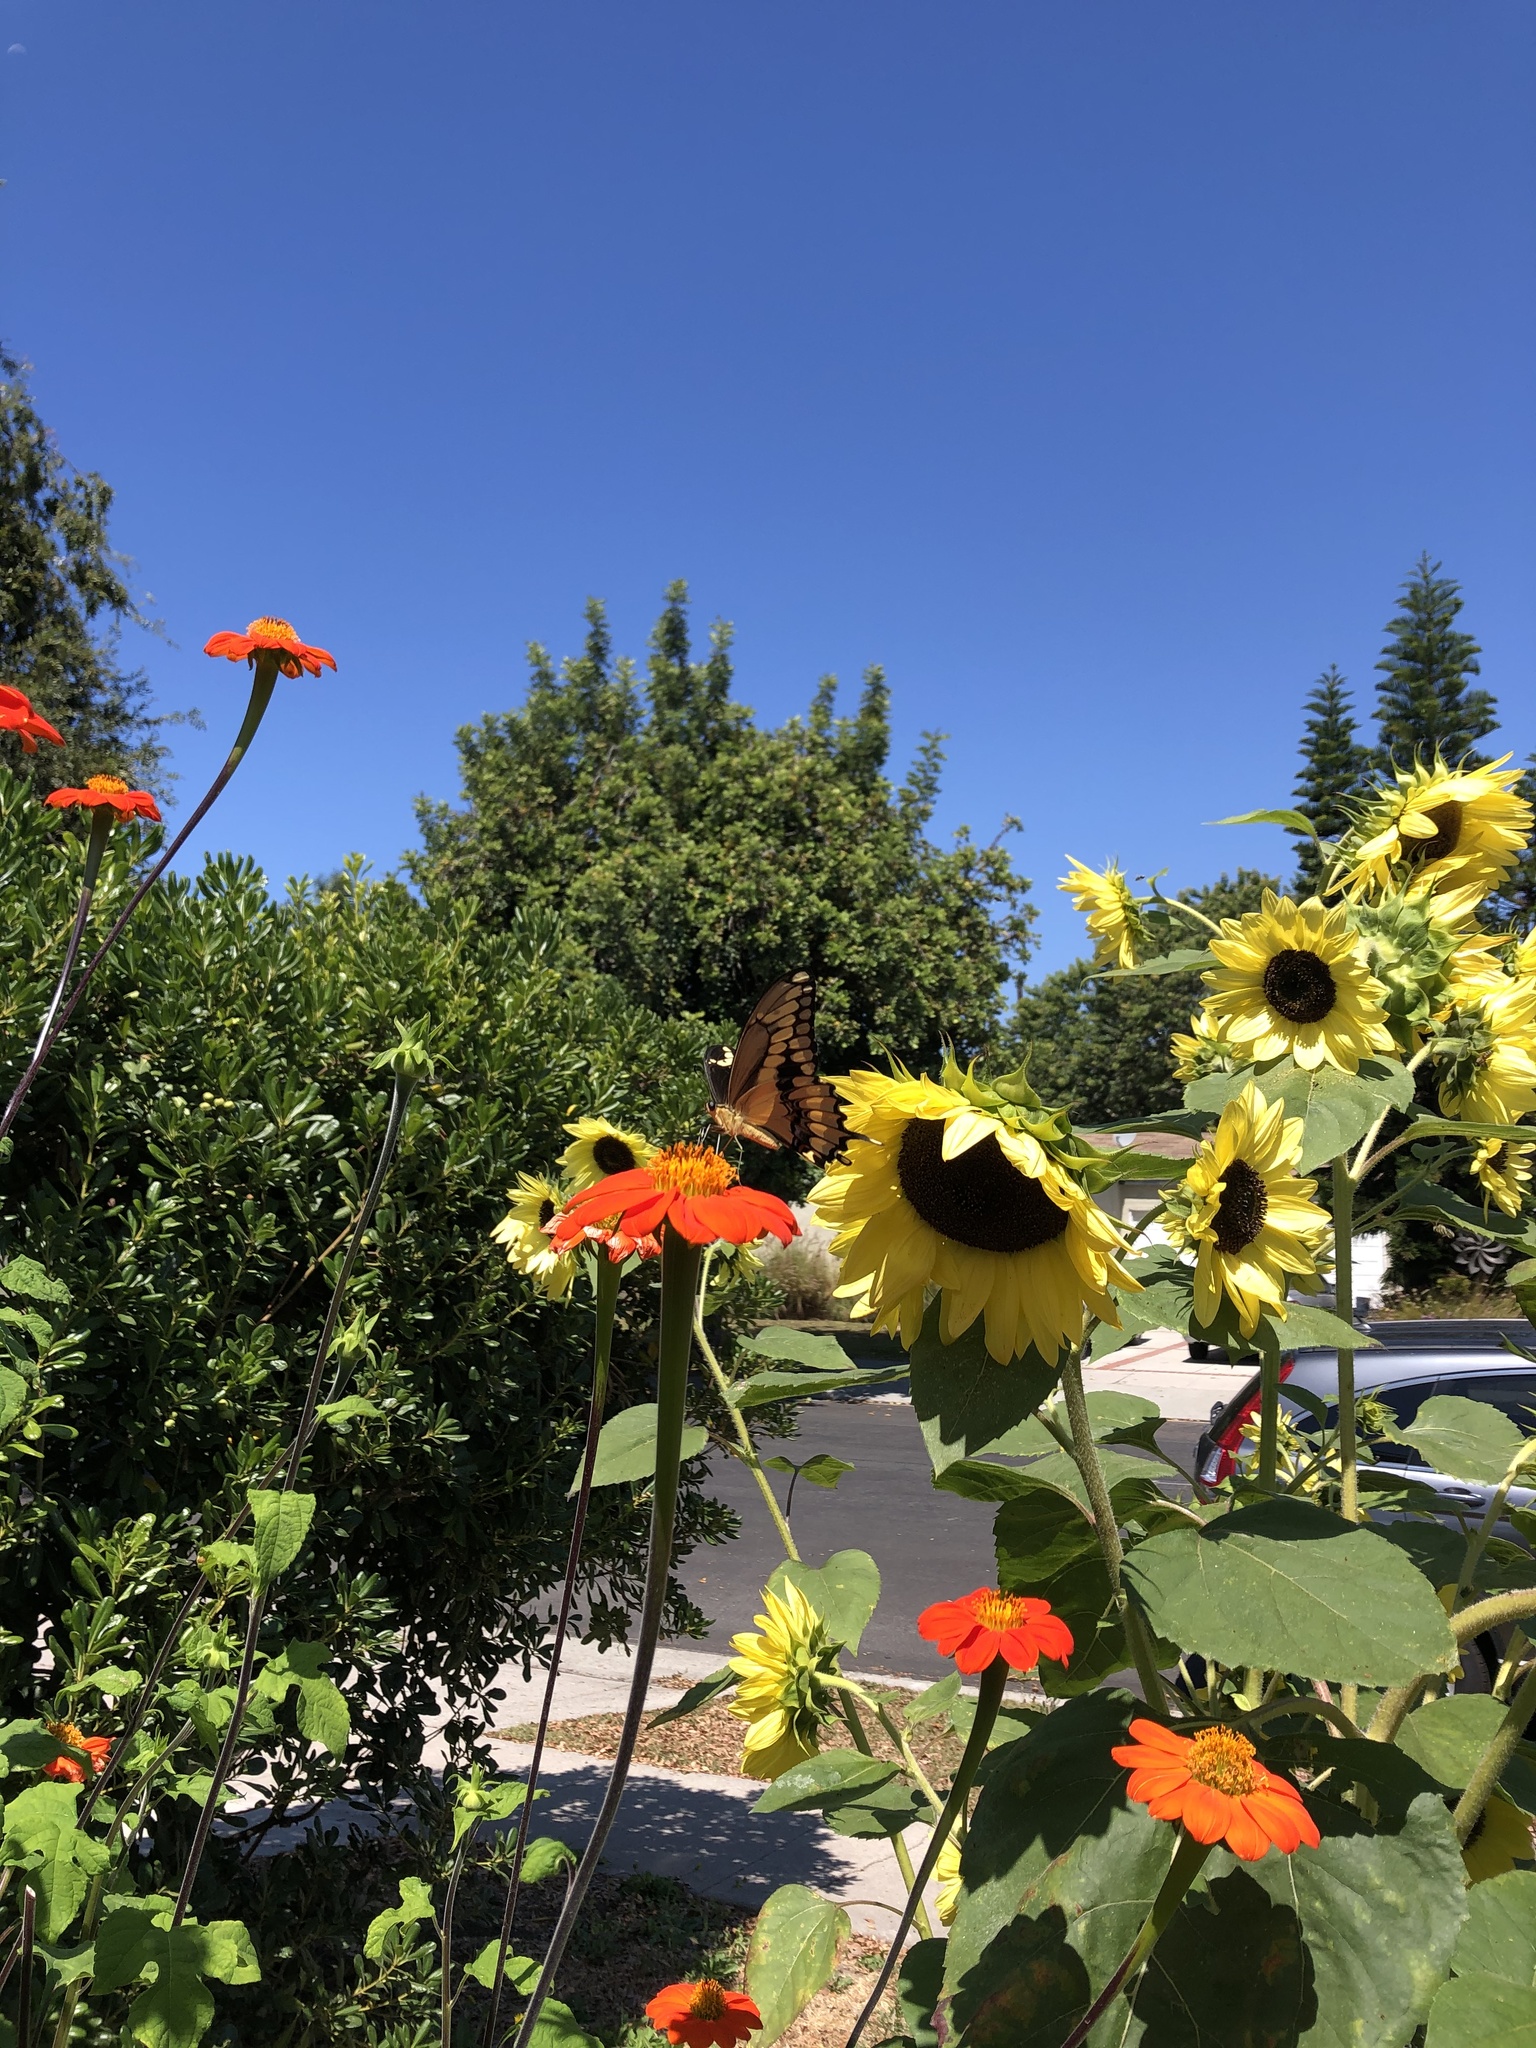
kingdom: Animalia
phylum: Arthropoda
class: Insecta
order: Lepidoptera
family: Papilionidae
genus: Papilio
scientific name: Papilio rumiko
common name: Western giant swallowtail
